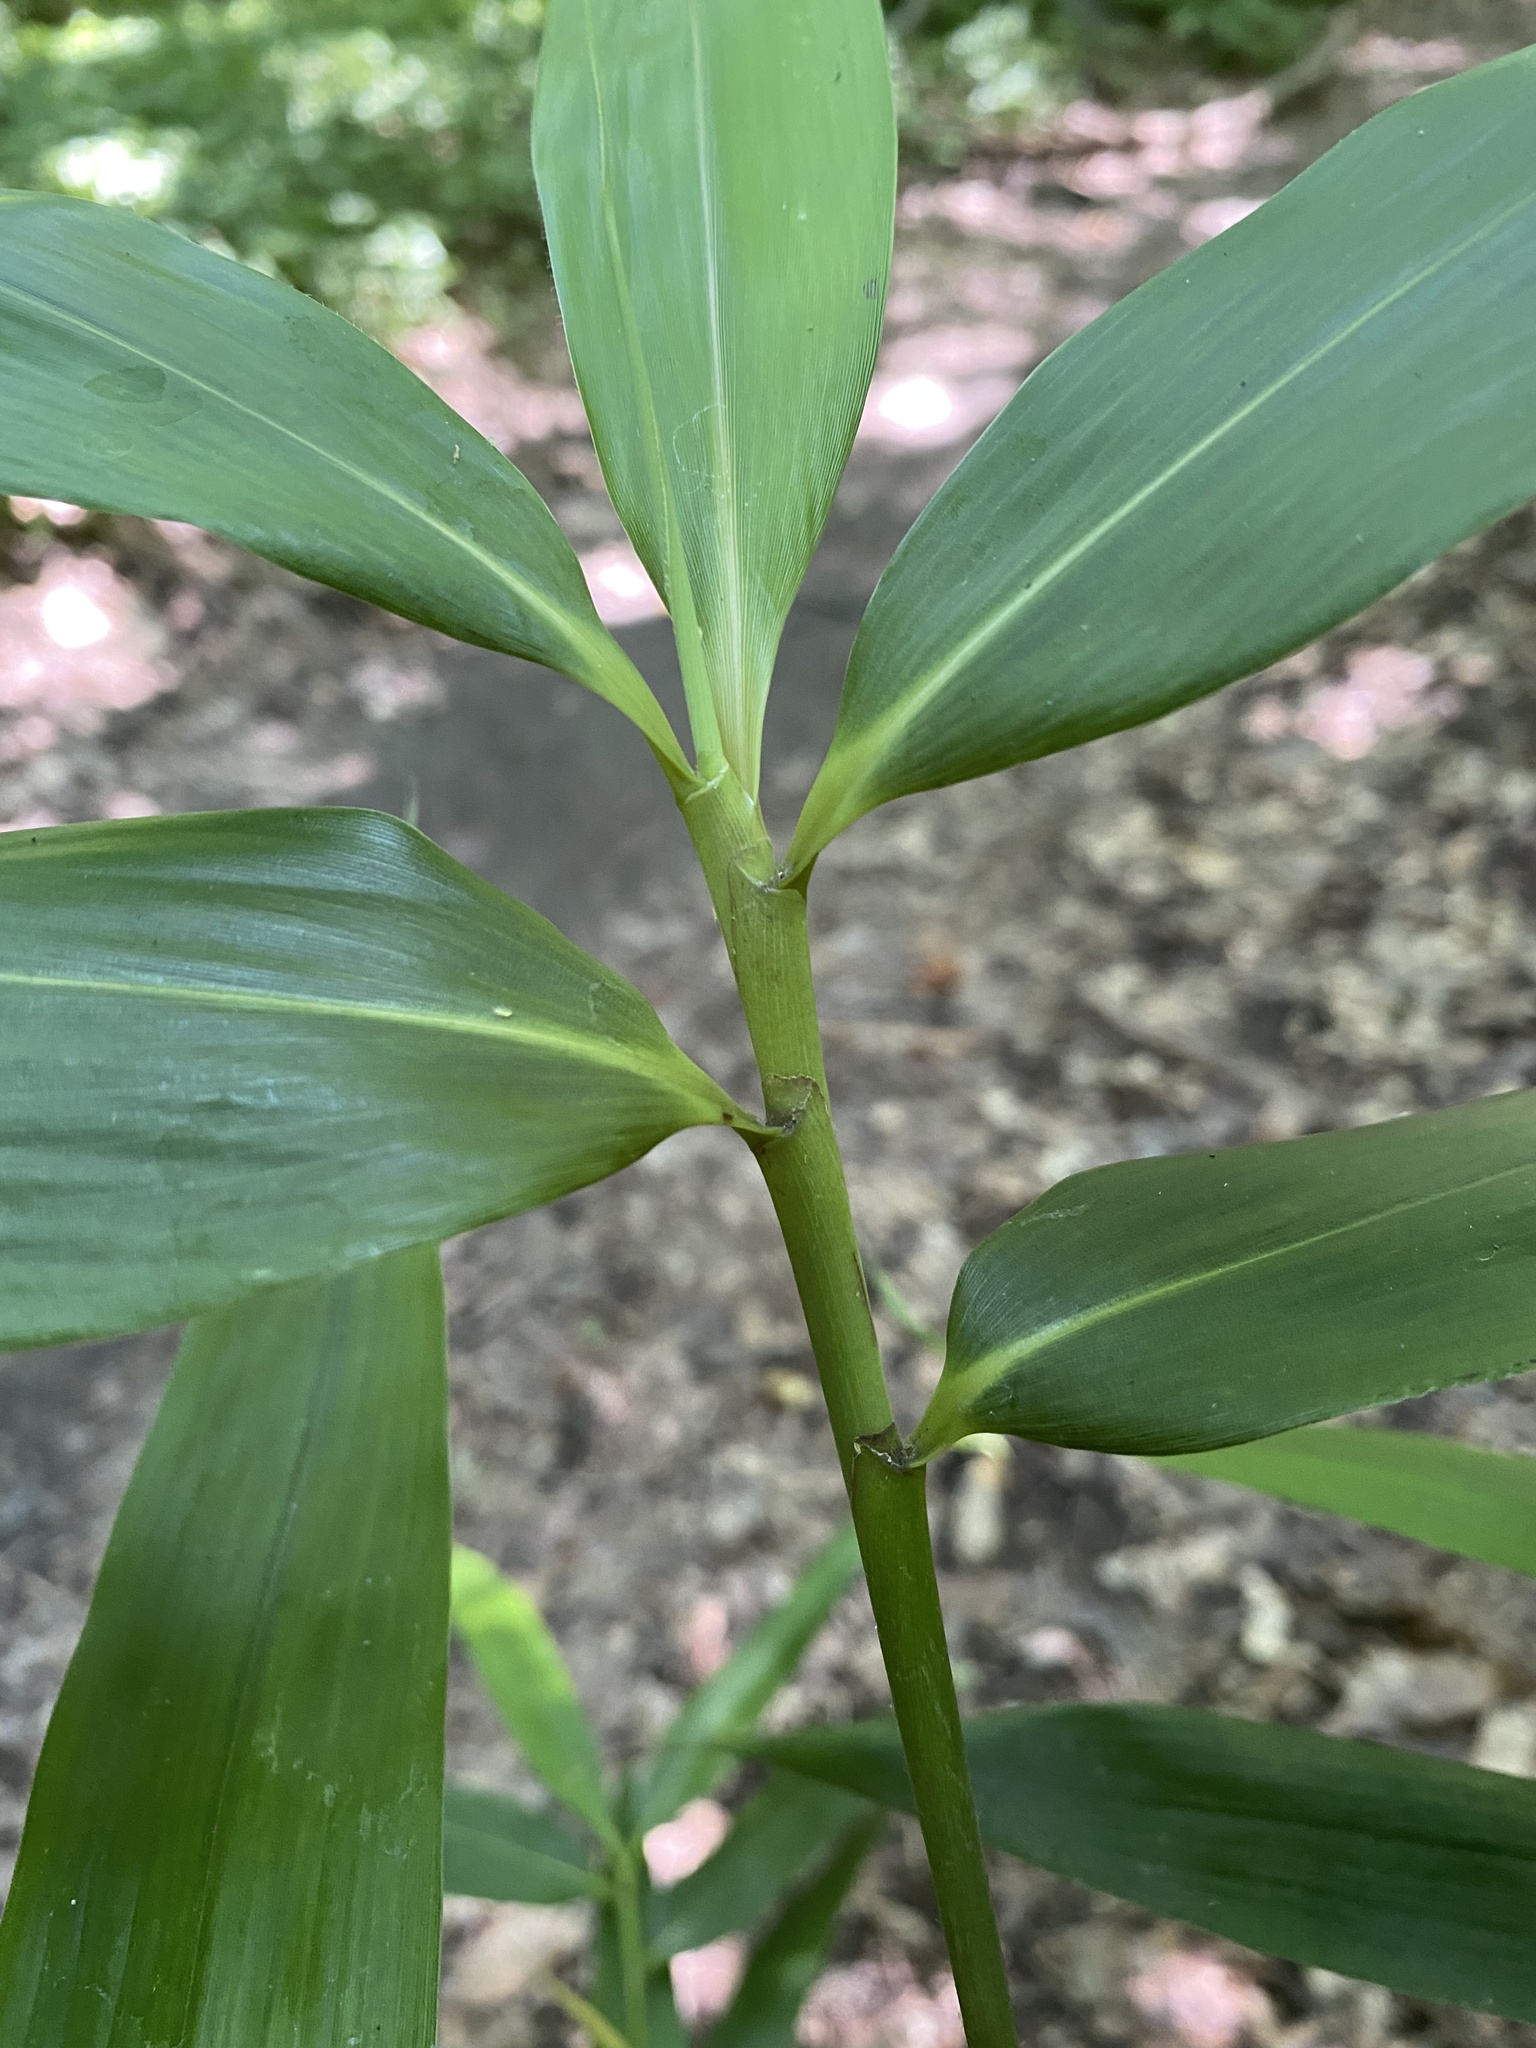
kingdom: Plantae
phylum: Tracheophyta
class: Liliopsida
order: Poales
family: Poaceae
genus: Pseudosasa
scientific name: Pseudosasa japonica
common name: Arrow bamboo
